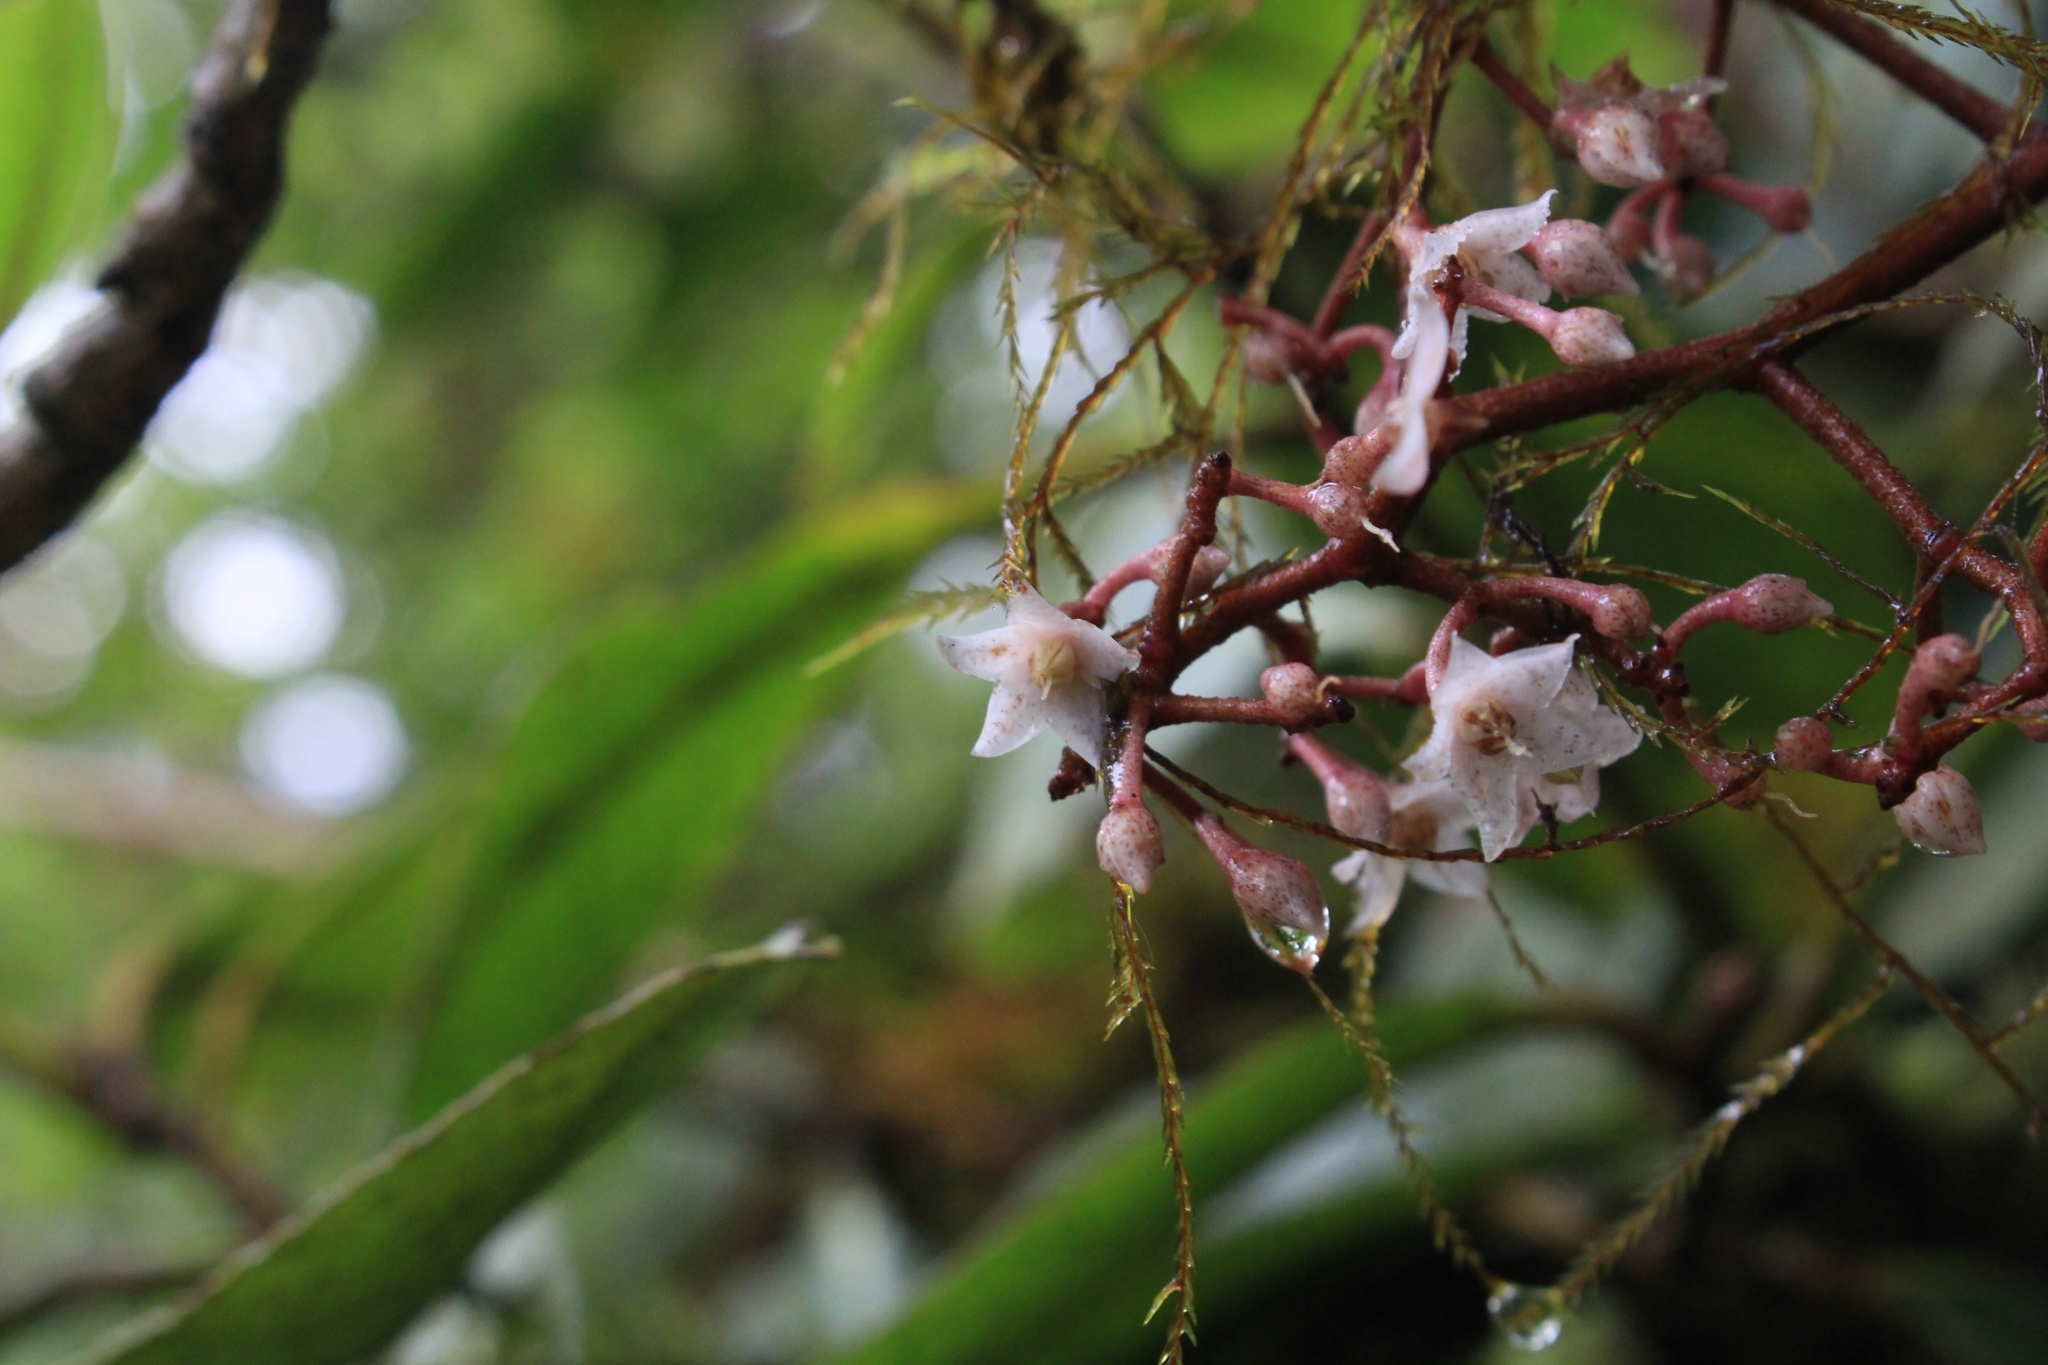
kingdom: Plantae
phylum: Tracheophyta
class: Magnoliopsida
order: Ericales
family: Primulaceae
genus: Ardisia
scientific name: Ardisia glandulosomarginata
